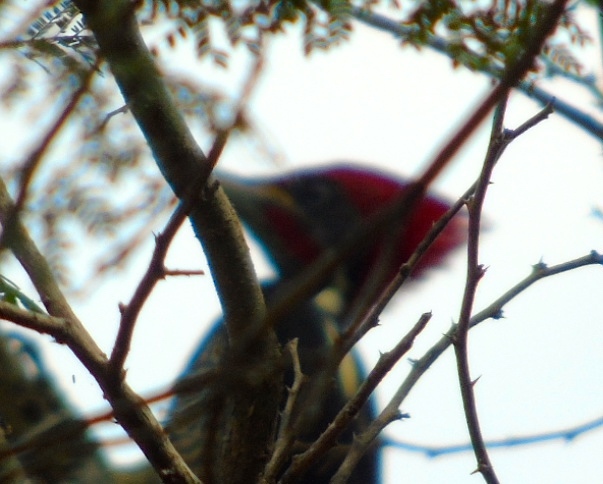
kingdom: Animalia
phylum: Chordata
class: Aves
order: Piciformes
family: Picidae
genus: Dryocopus
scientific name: Dryocopus lineatus
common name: Lineated woodpecker
